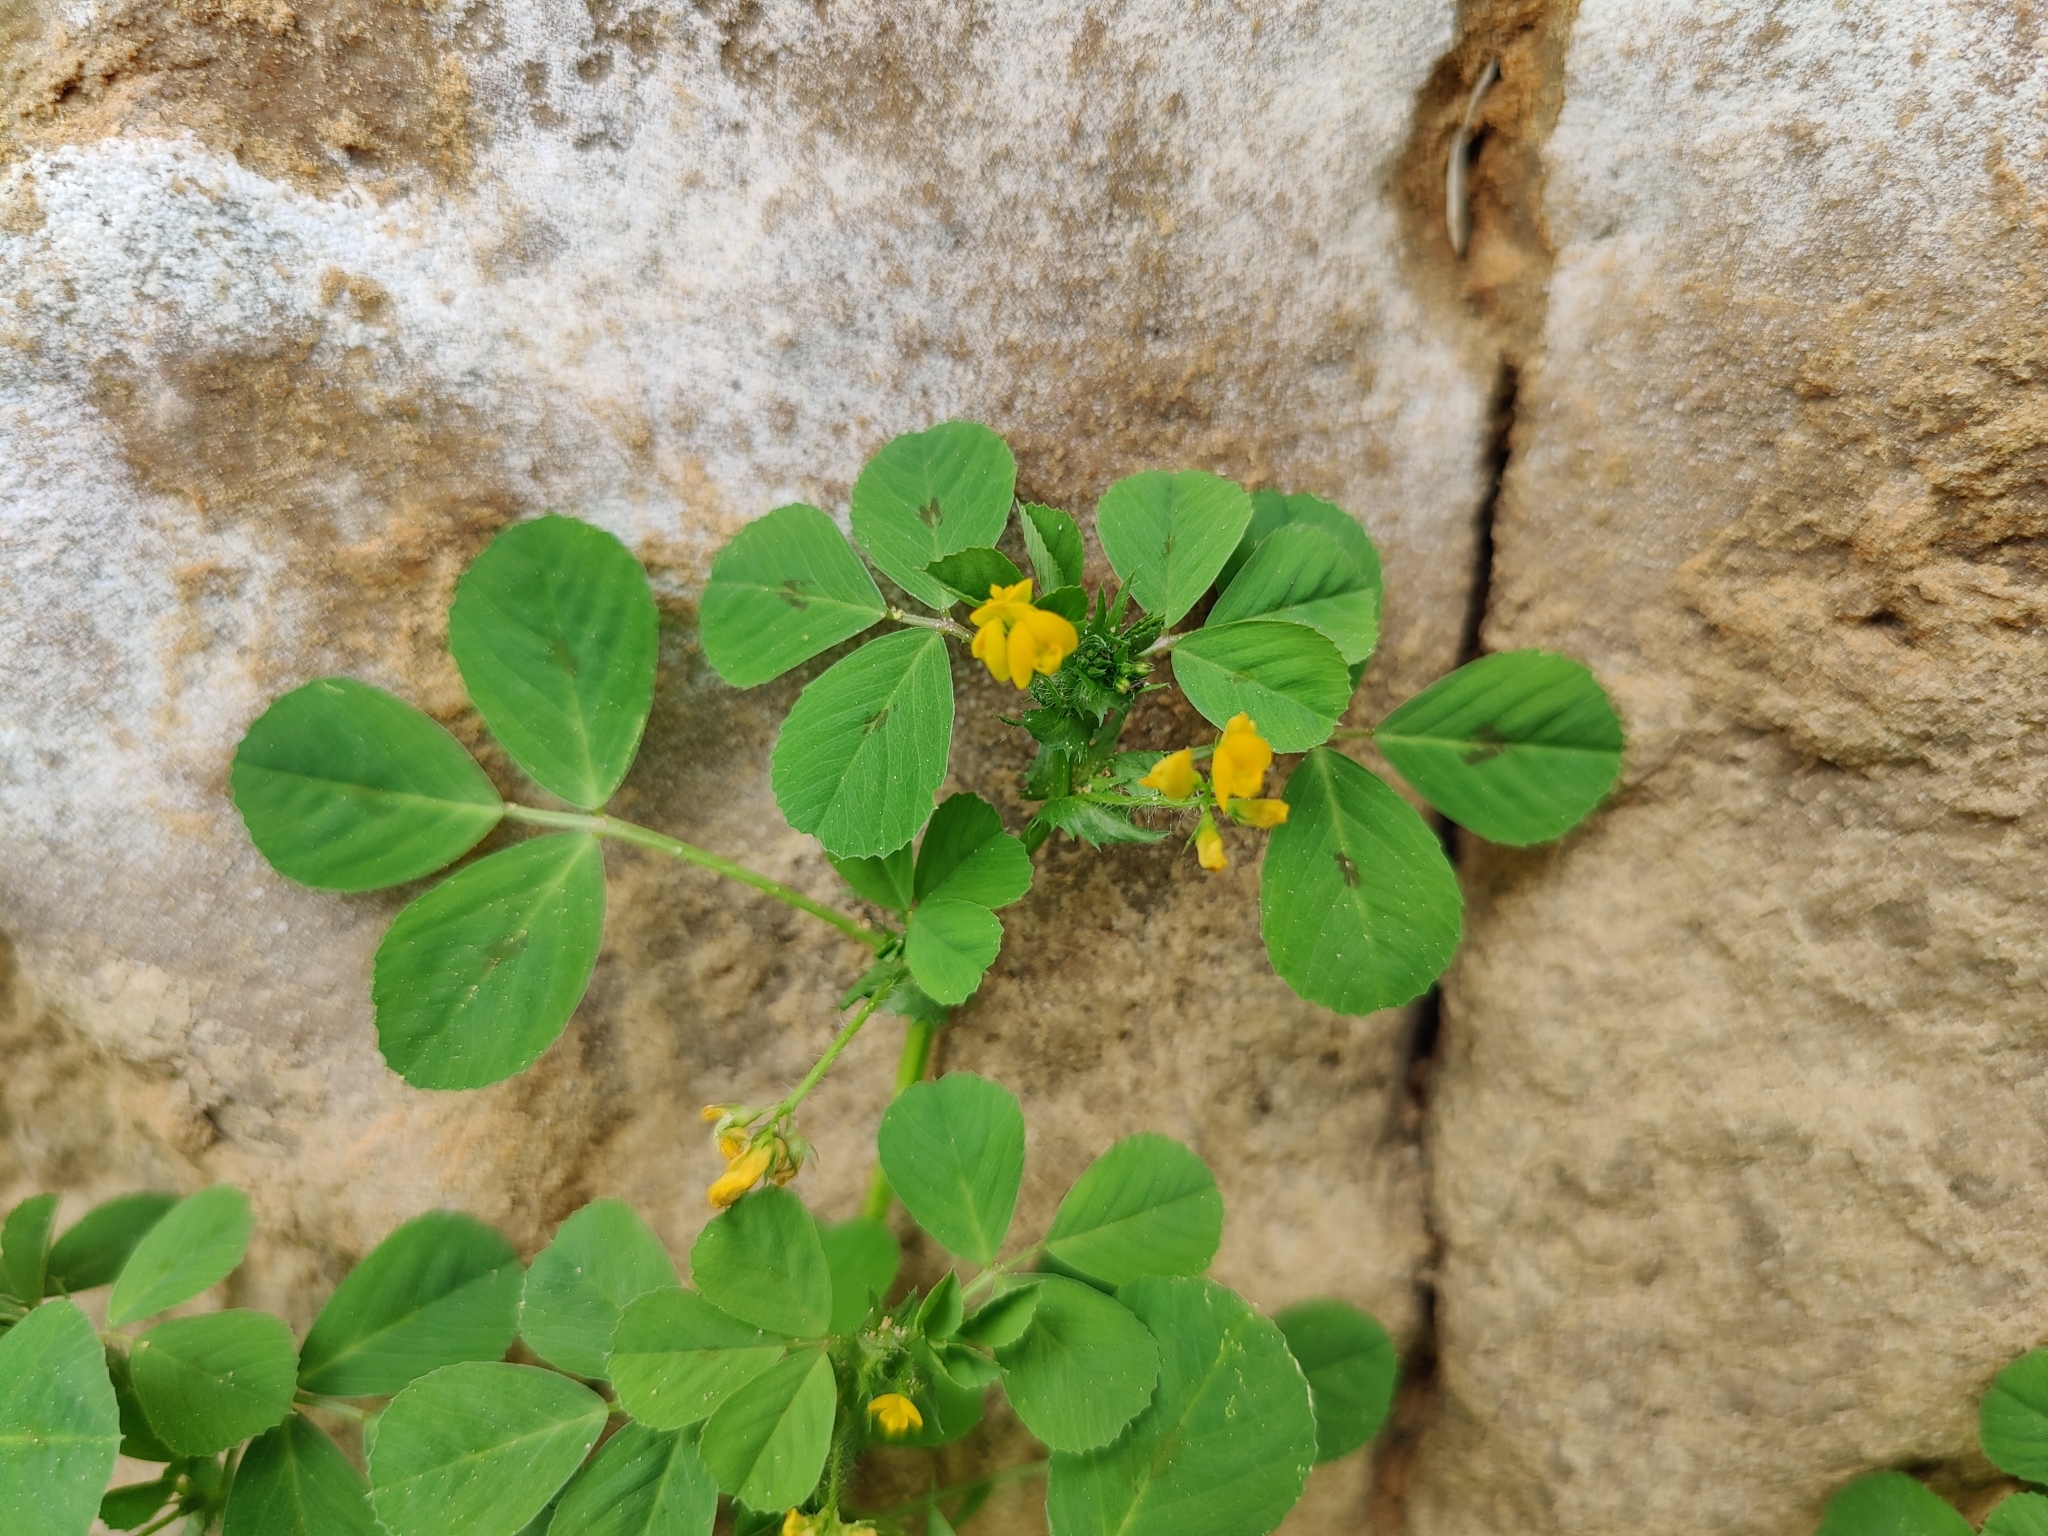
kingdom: Plantae
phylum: Tracheophyta
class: Magnoliopsida
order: Fabales
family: Fabaceae
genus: Medicago
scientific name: Medicago arabica
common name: Spotted medick
